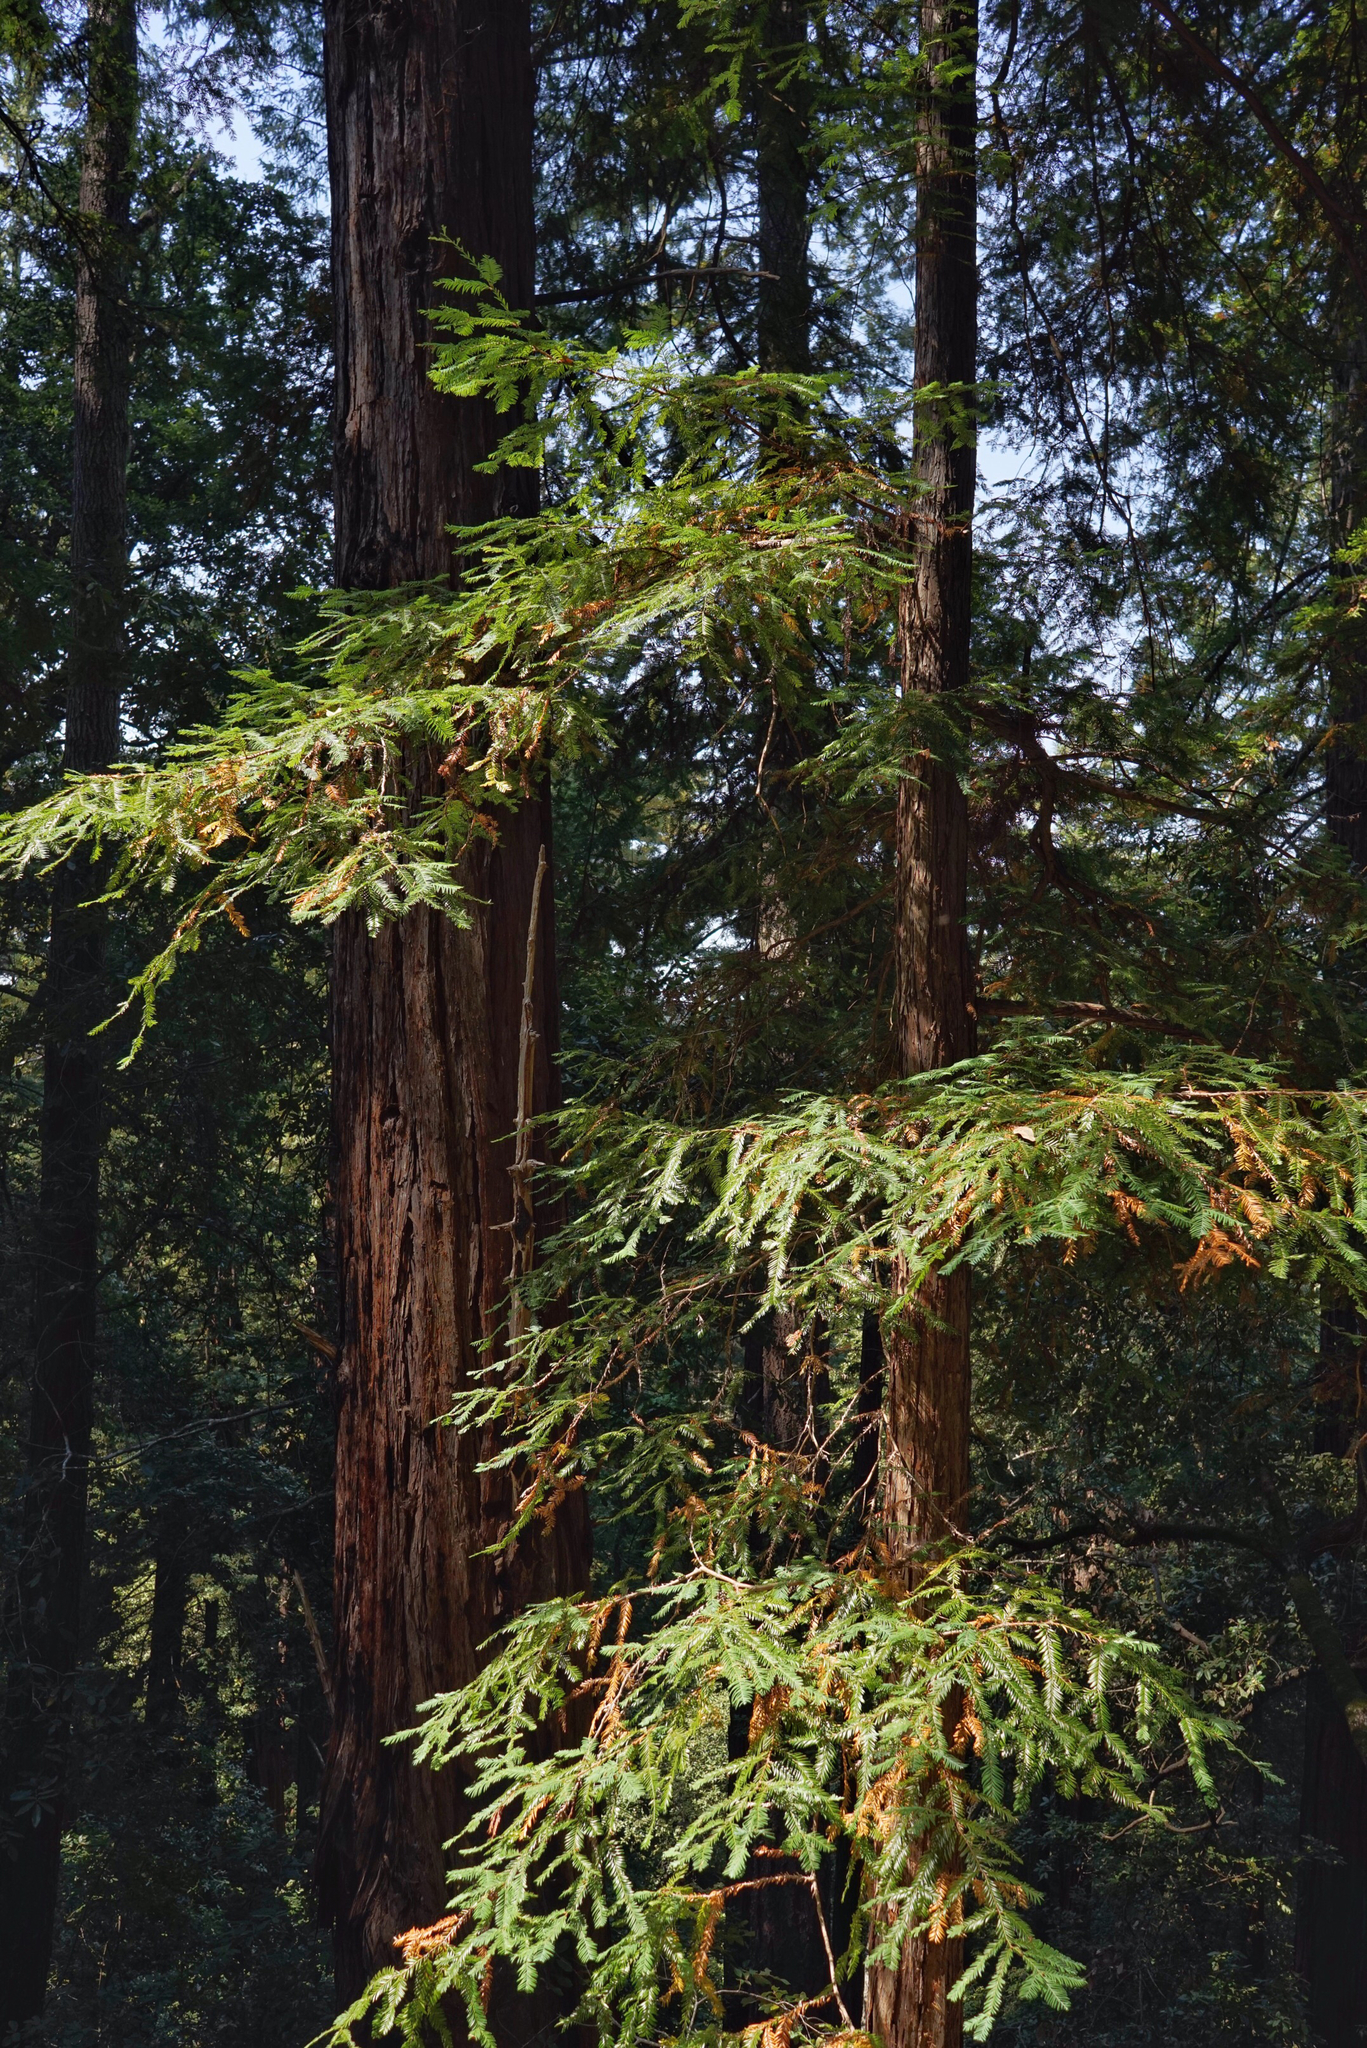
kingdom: Plantae
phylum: Tracheophyta
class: Pinopsida
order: Pinales
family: Cupressaceae
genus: Sequoia
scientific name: Sequoia sempervirens
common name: Coast redwood
